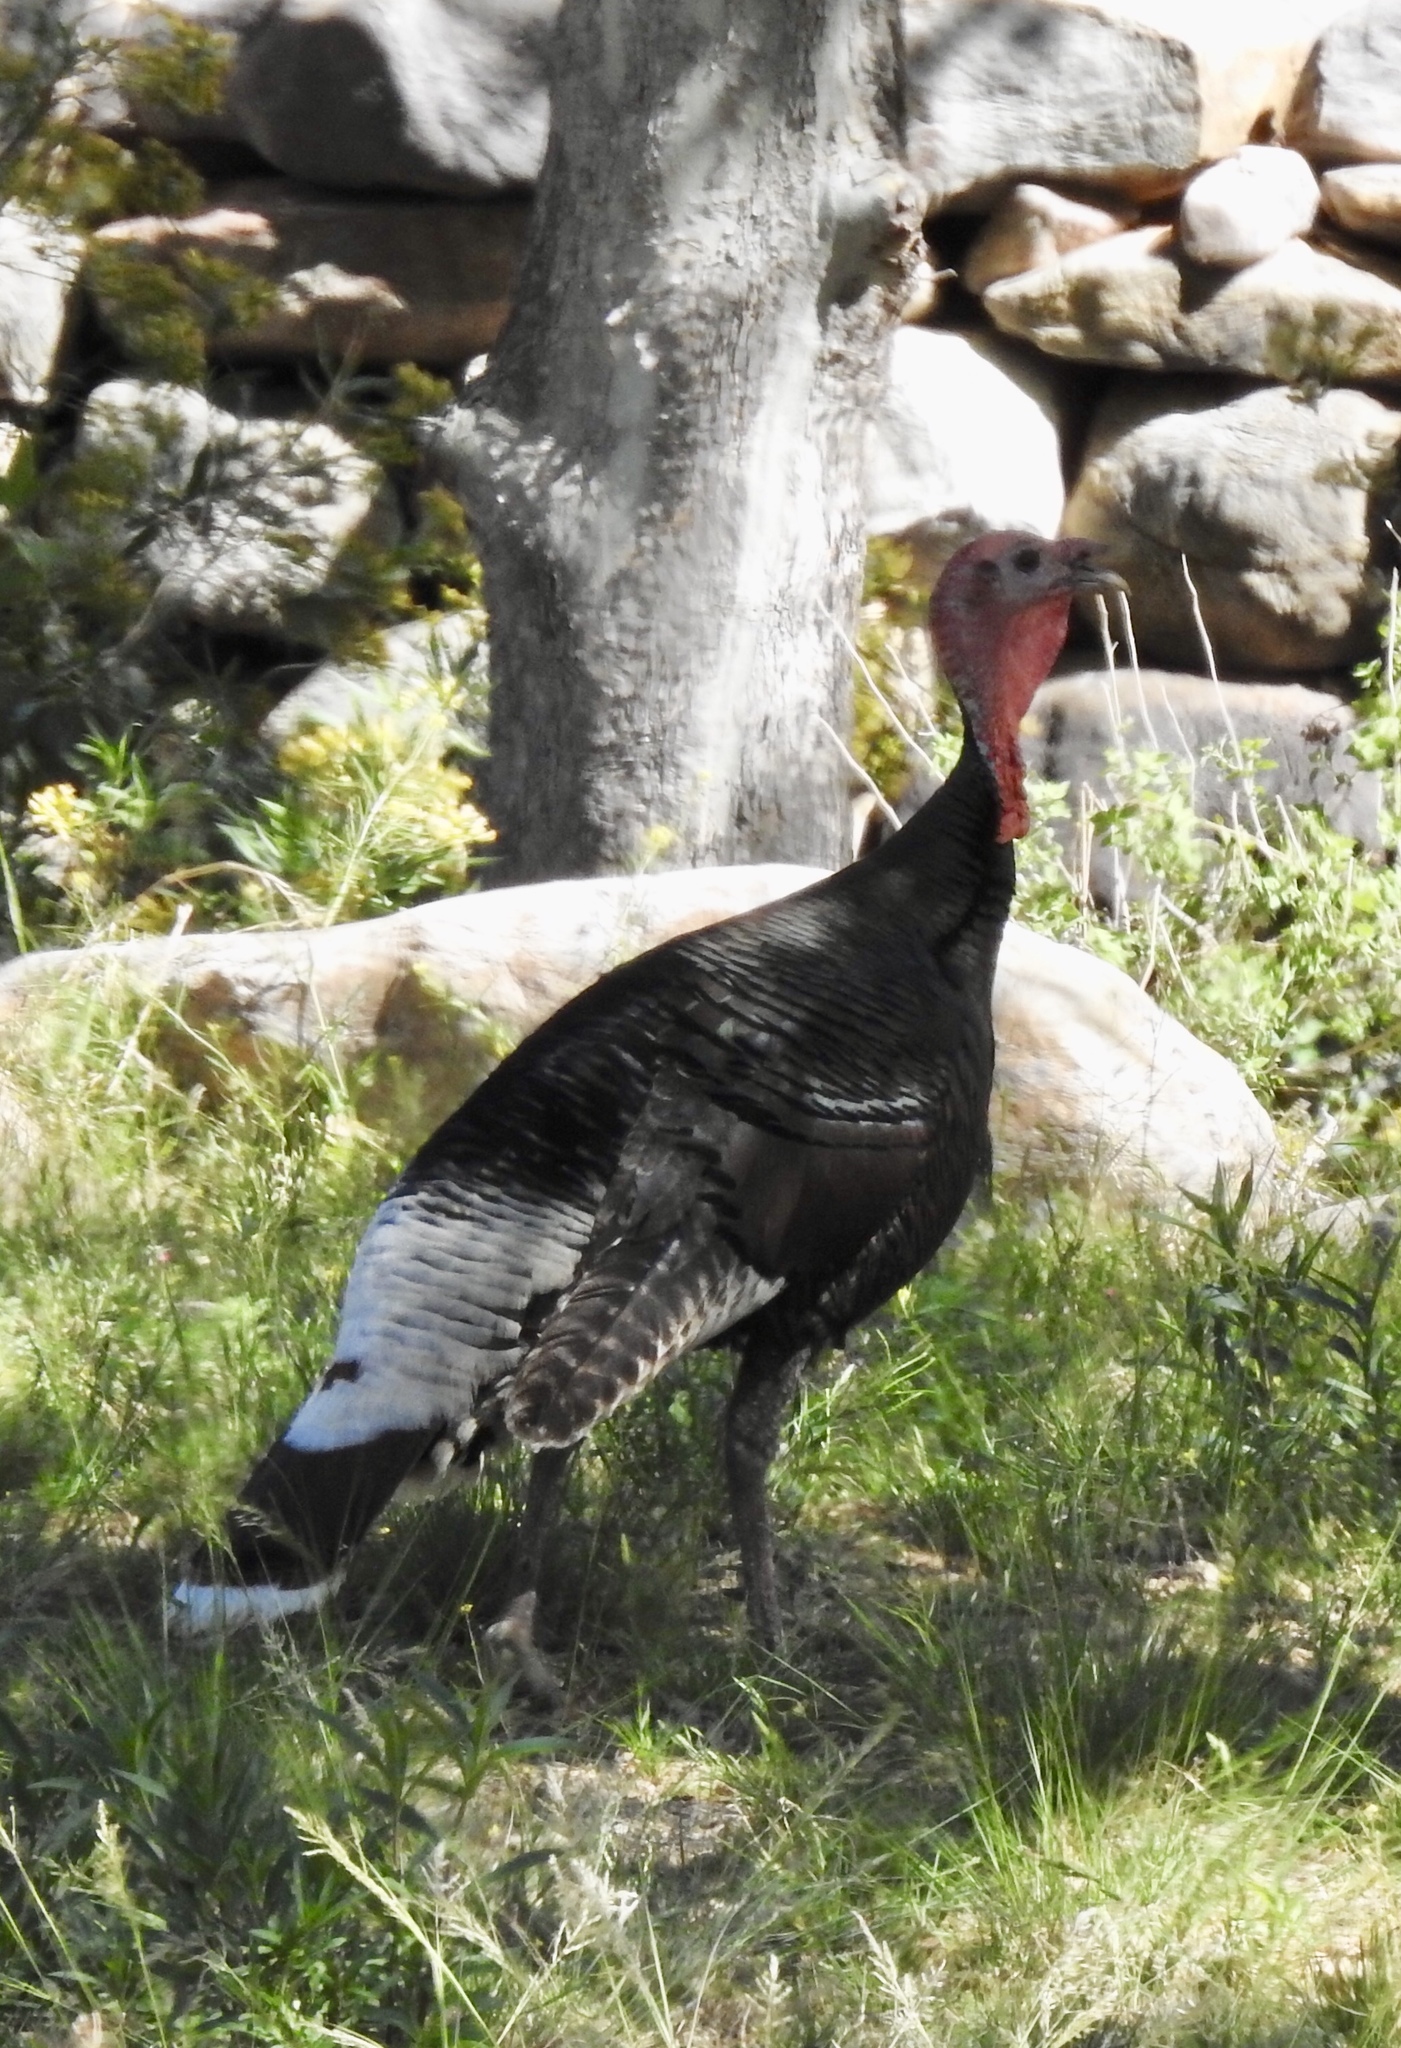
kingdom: Animalia
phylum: Chordata
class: Aves
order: Galliformes
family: Phasianidae
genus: Meleagris
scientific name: Meleagris gallopavo
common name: Wild turkey
